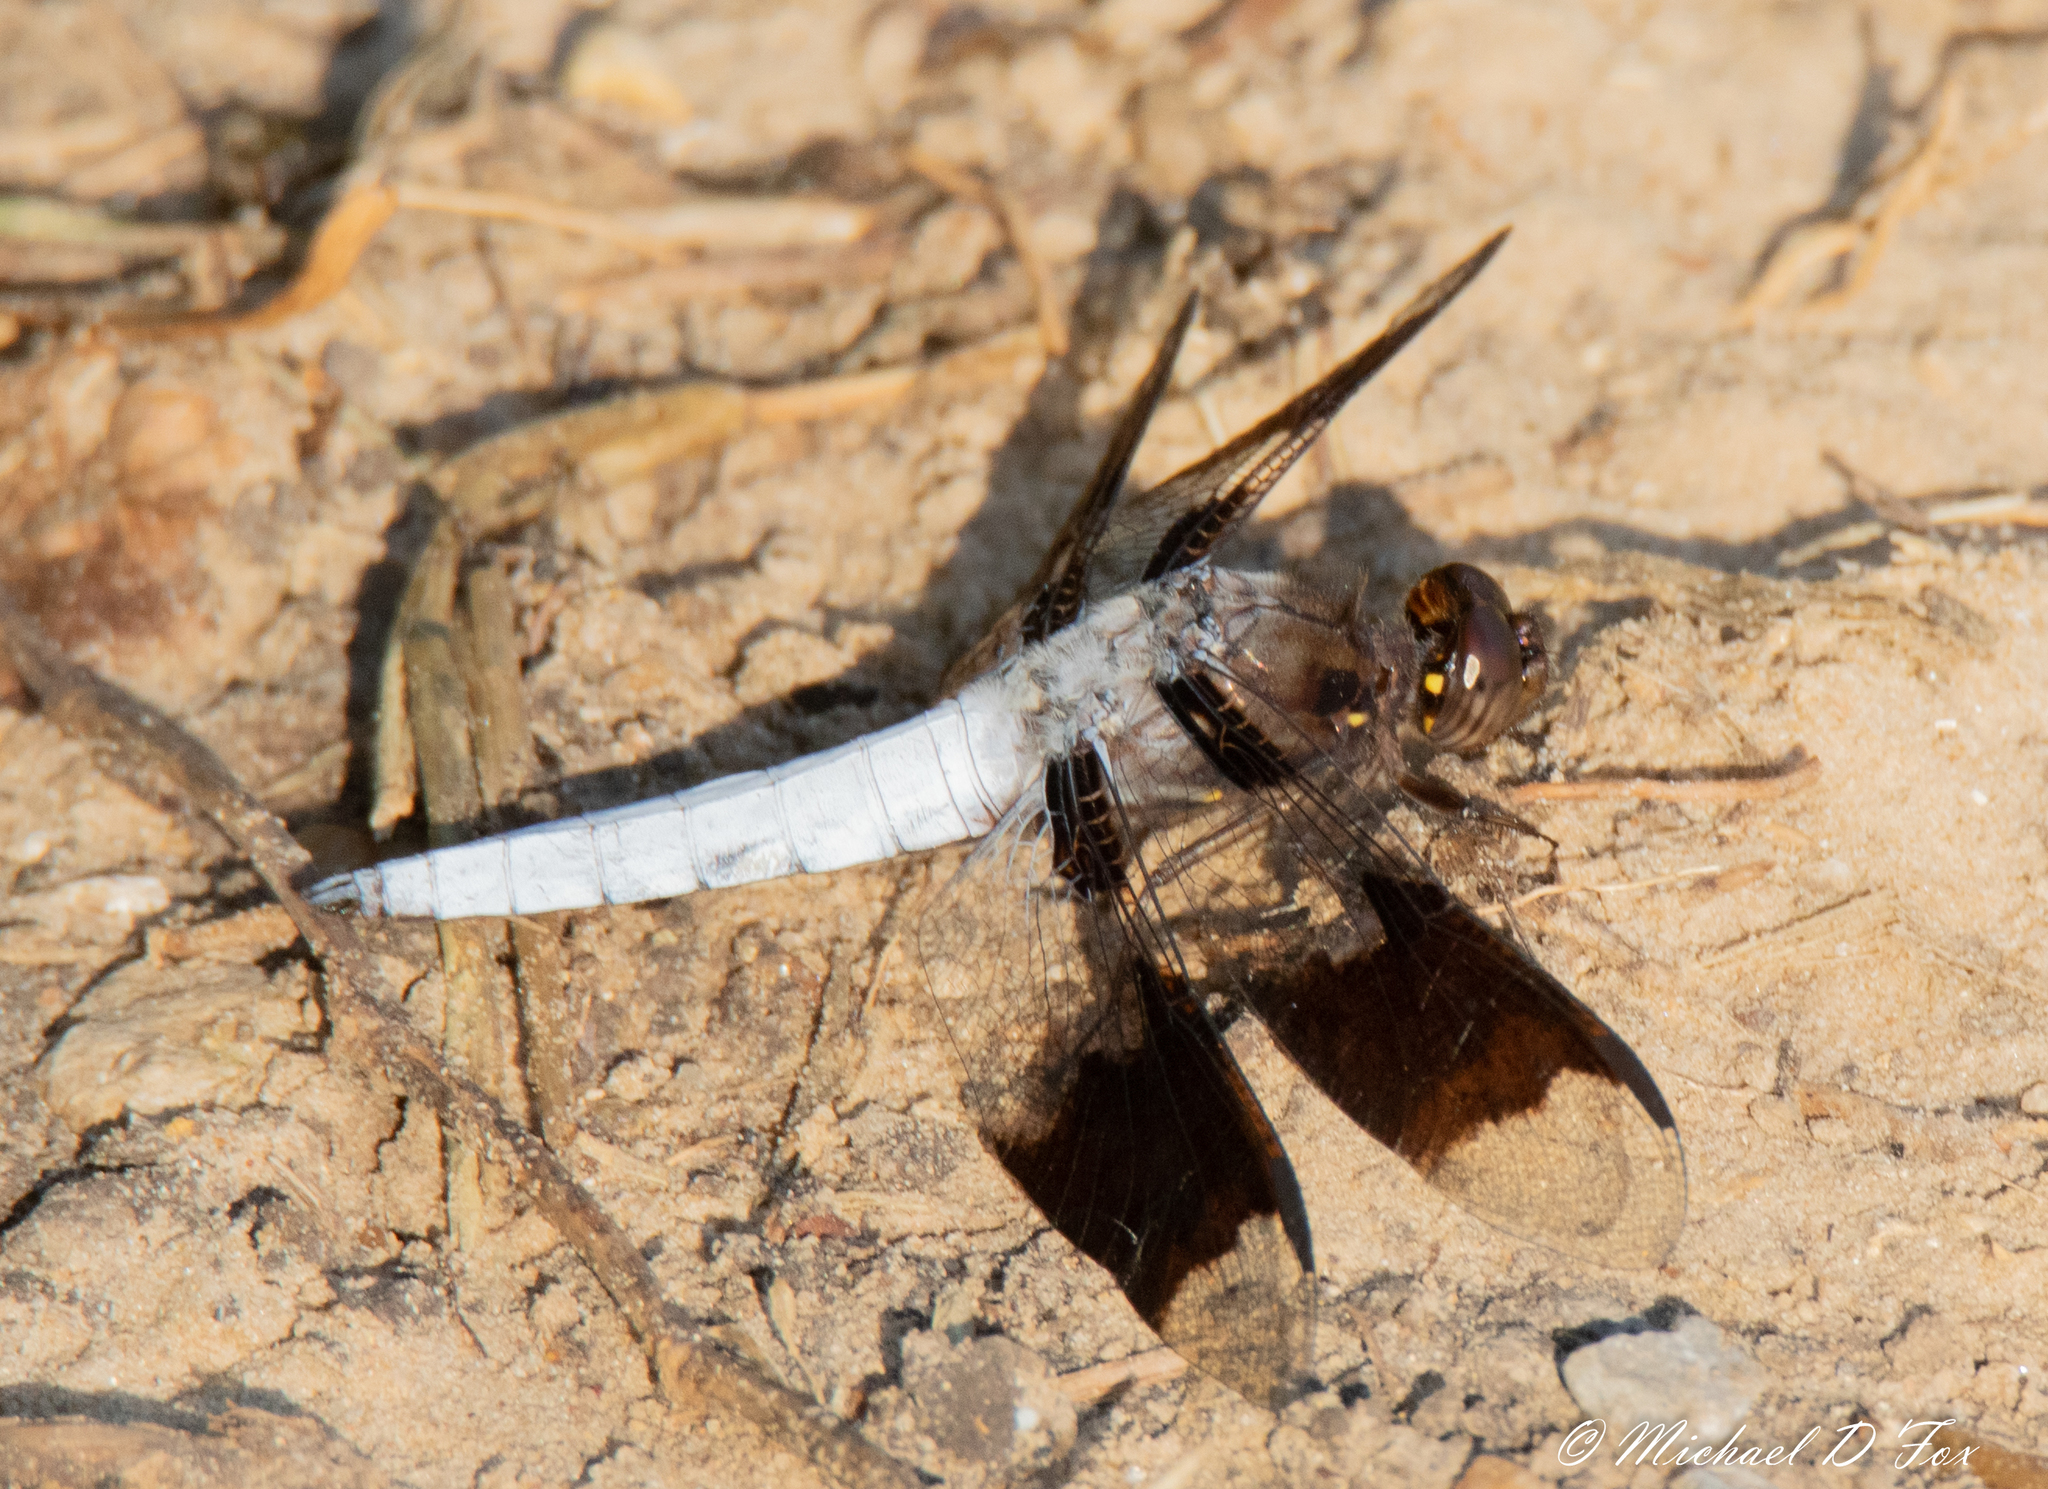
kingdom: Animalia
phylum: Arthropoda
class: Insecta
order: Odonata
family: Libellulidae
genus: Plathemis
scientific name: Plathemis lydia
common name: Common whitetail
